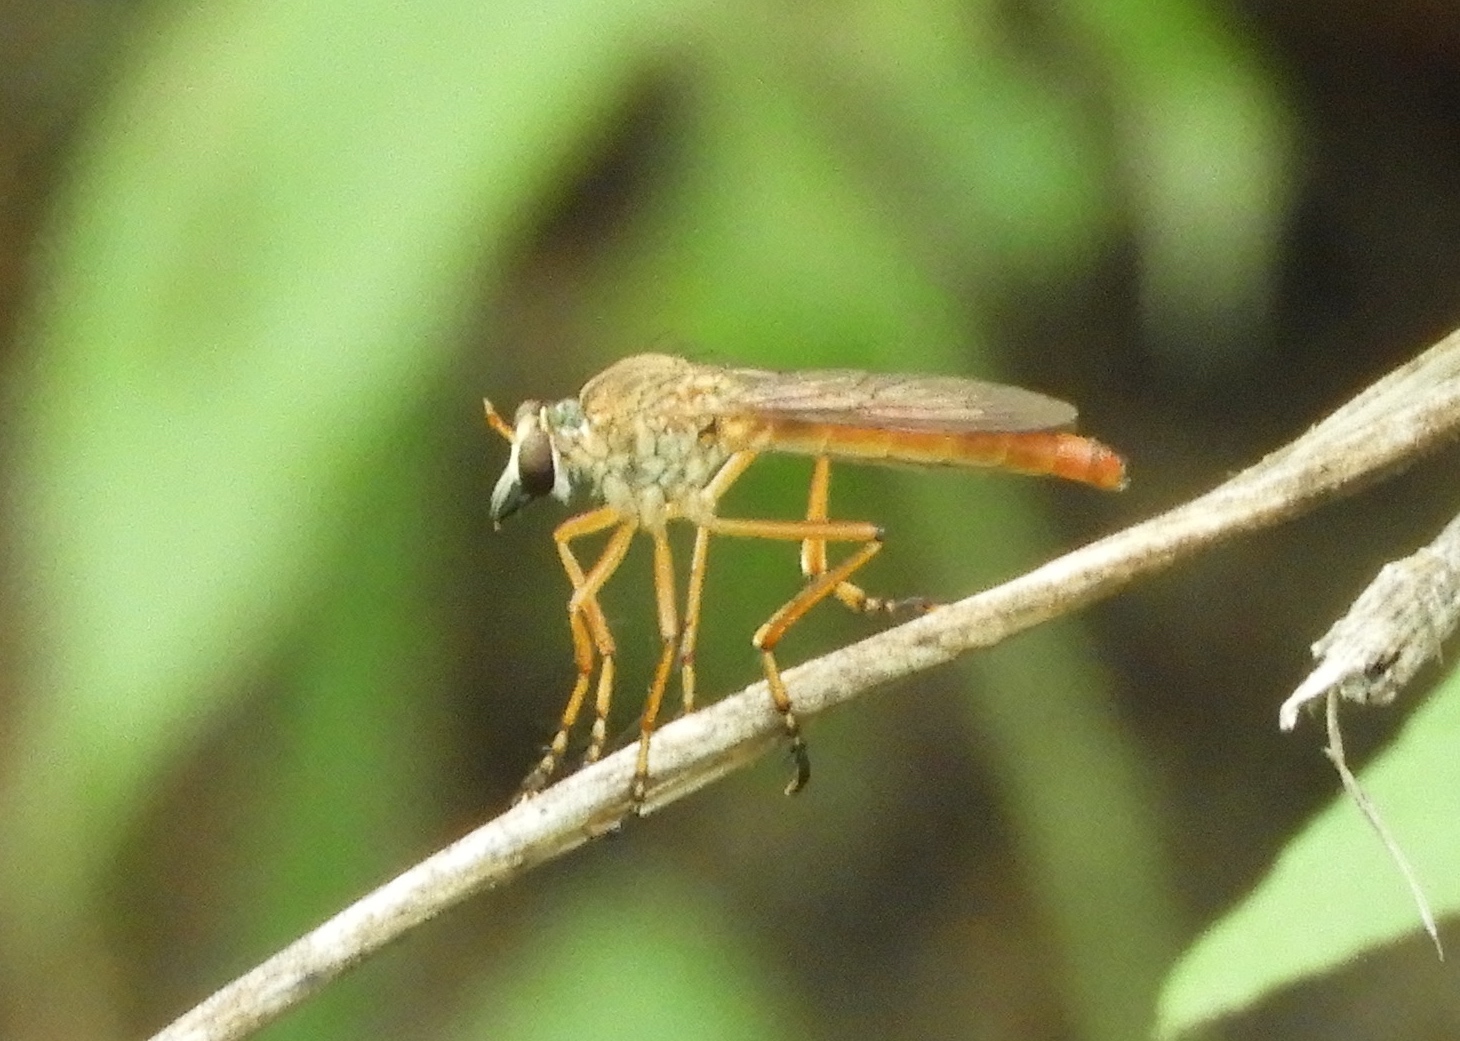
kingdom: Animalia
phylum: Arthropoda
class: Insecta
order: Diptera
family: Asilidae
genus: Diogmites
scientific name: Diogmites
